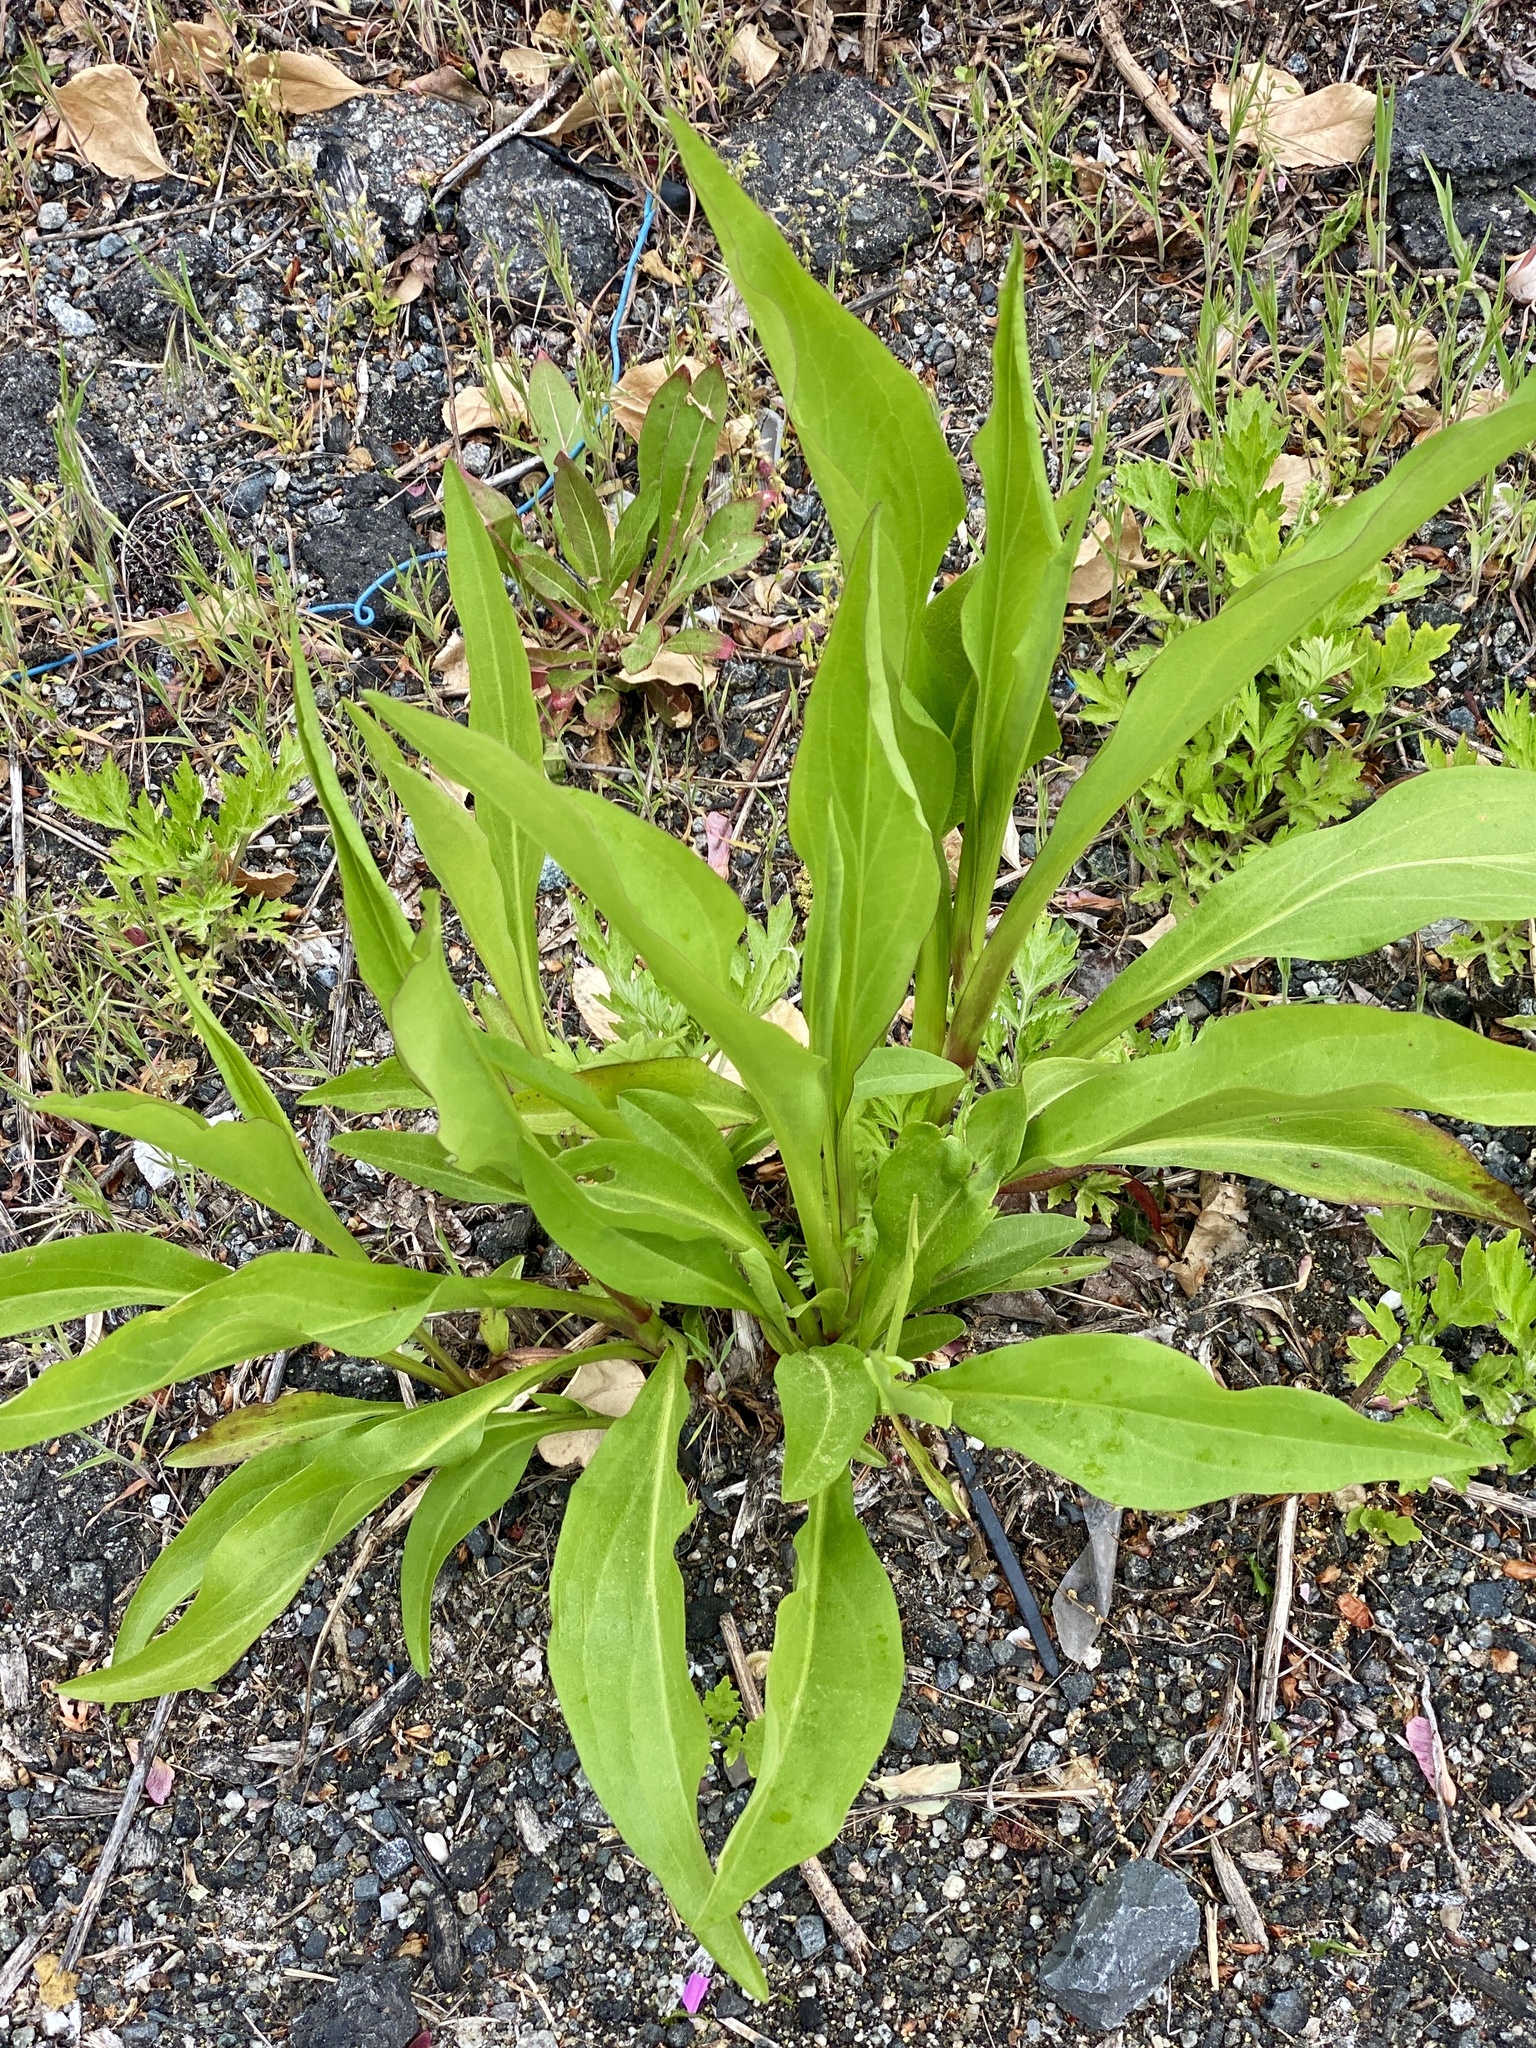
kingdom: Plantae
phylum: Tracheophyta
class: Magnoliopsida
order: Asterales
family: Asteraceae
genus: Solidago
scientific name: Solidago sempervirens
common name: Salt-marsh goldenrod
